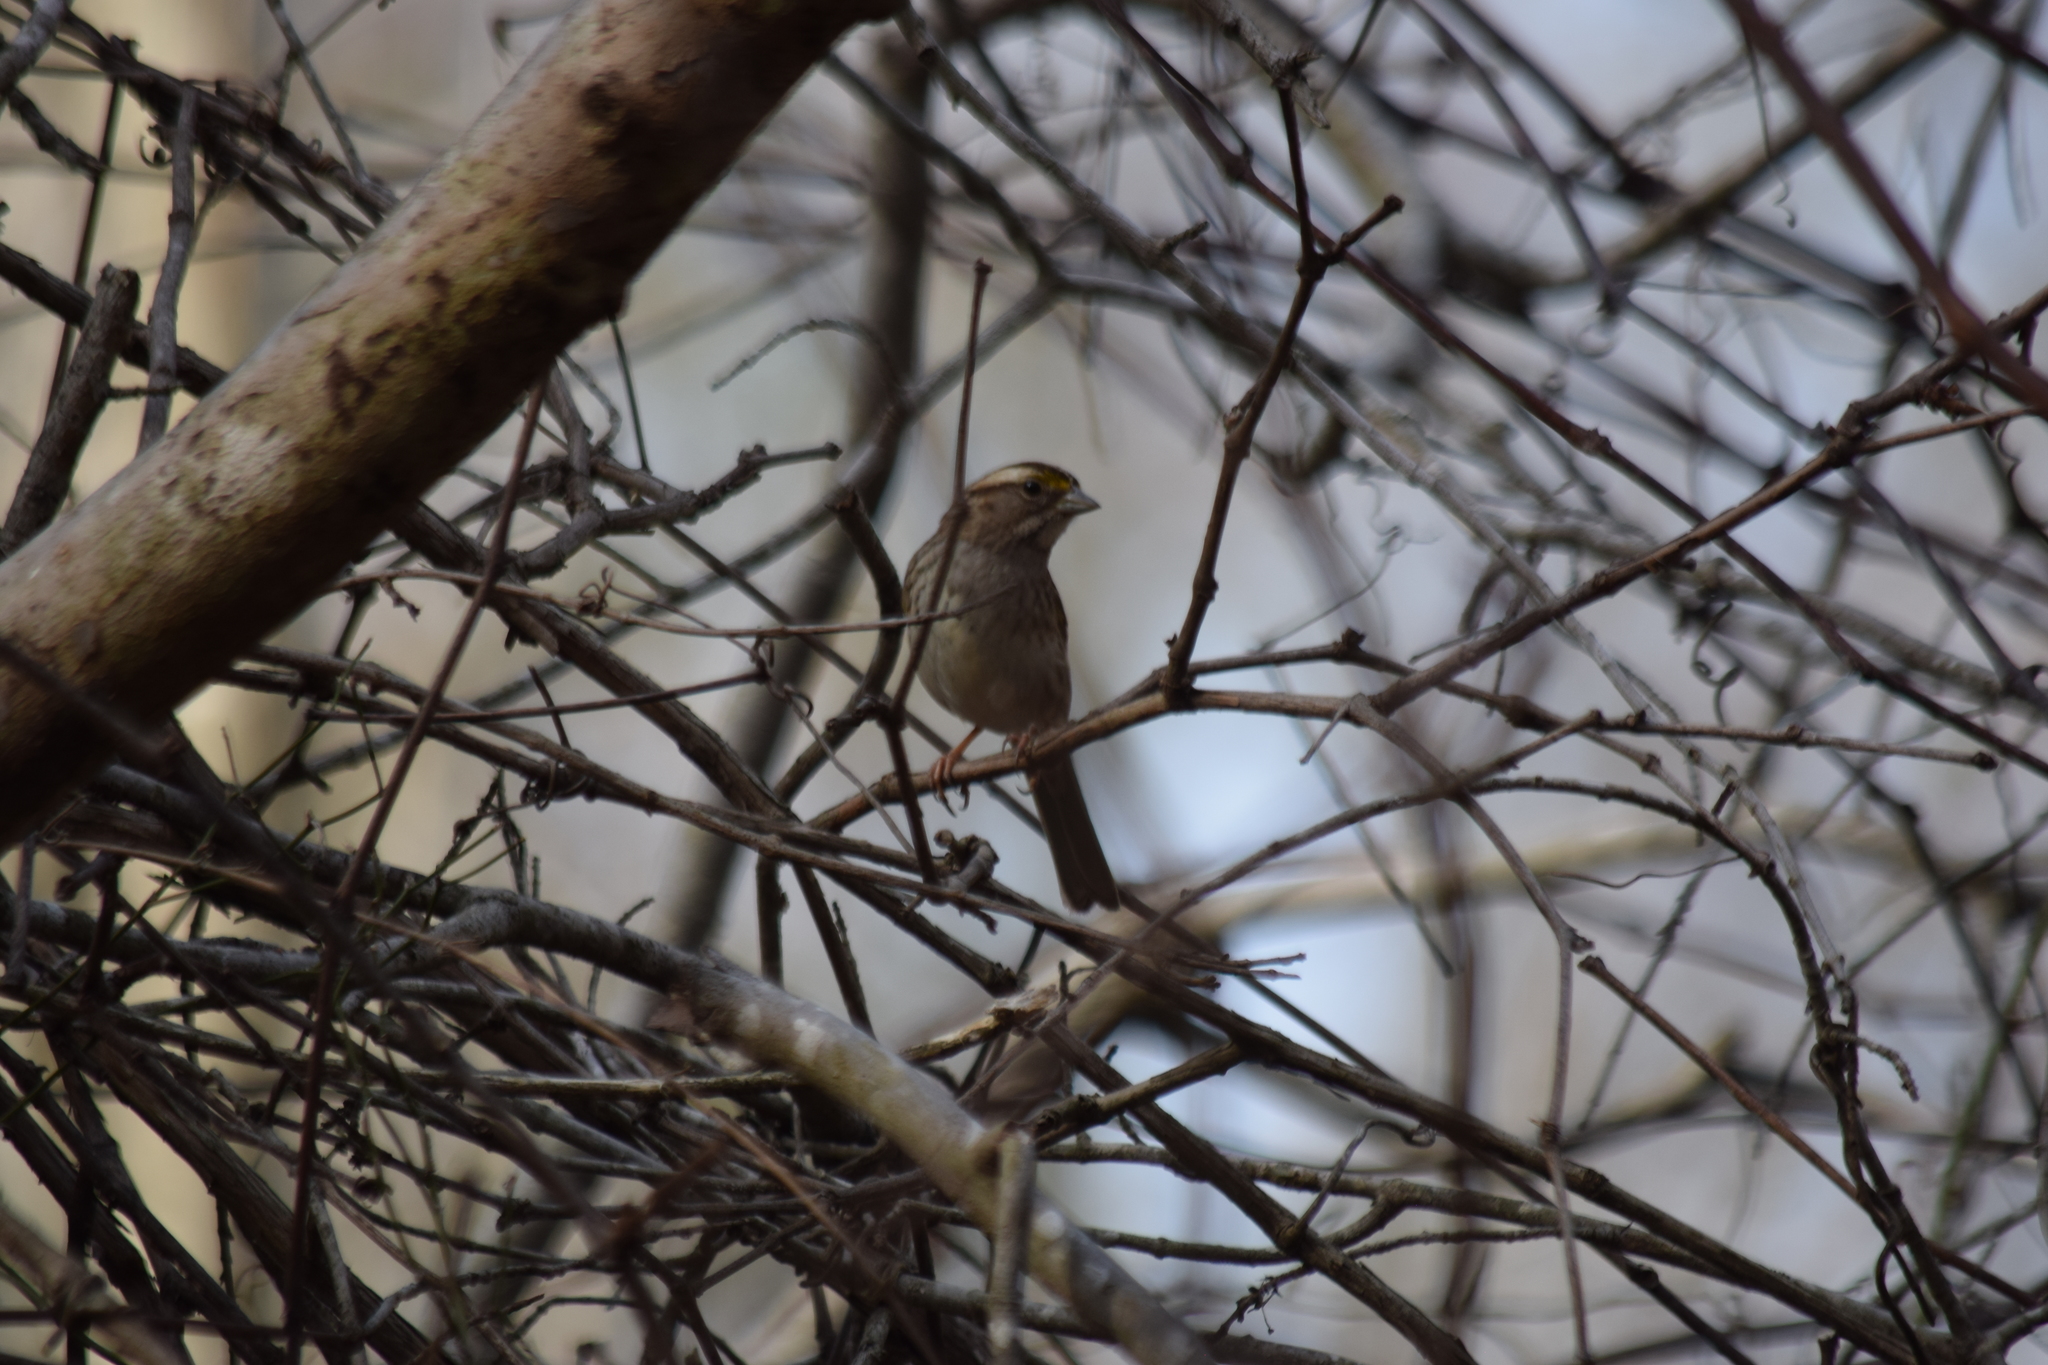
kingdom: Animalia
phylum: Chordata
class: Aves
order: Passeriformes
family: Passerellidae
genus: Zonotrichia
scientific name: Zonotrichia albicollis
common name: White-throated sparrow
